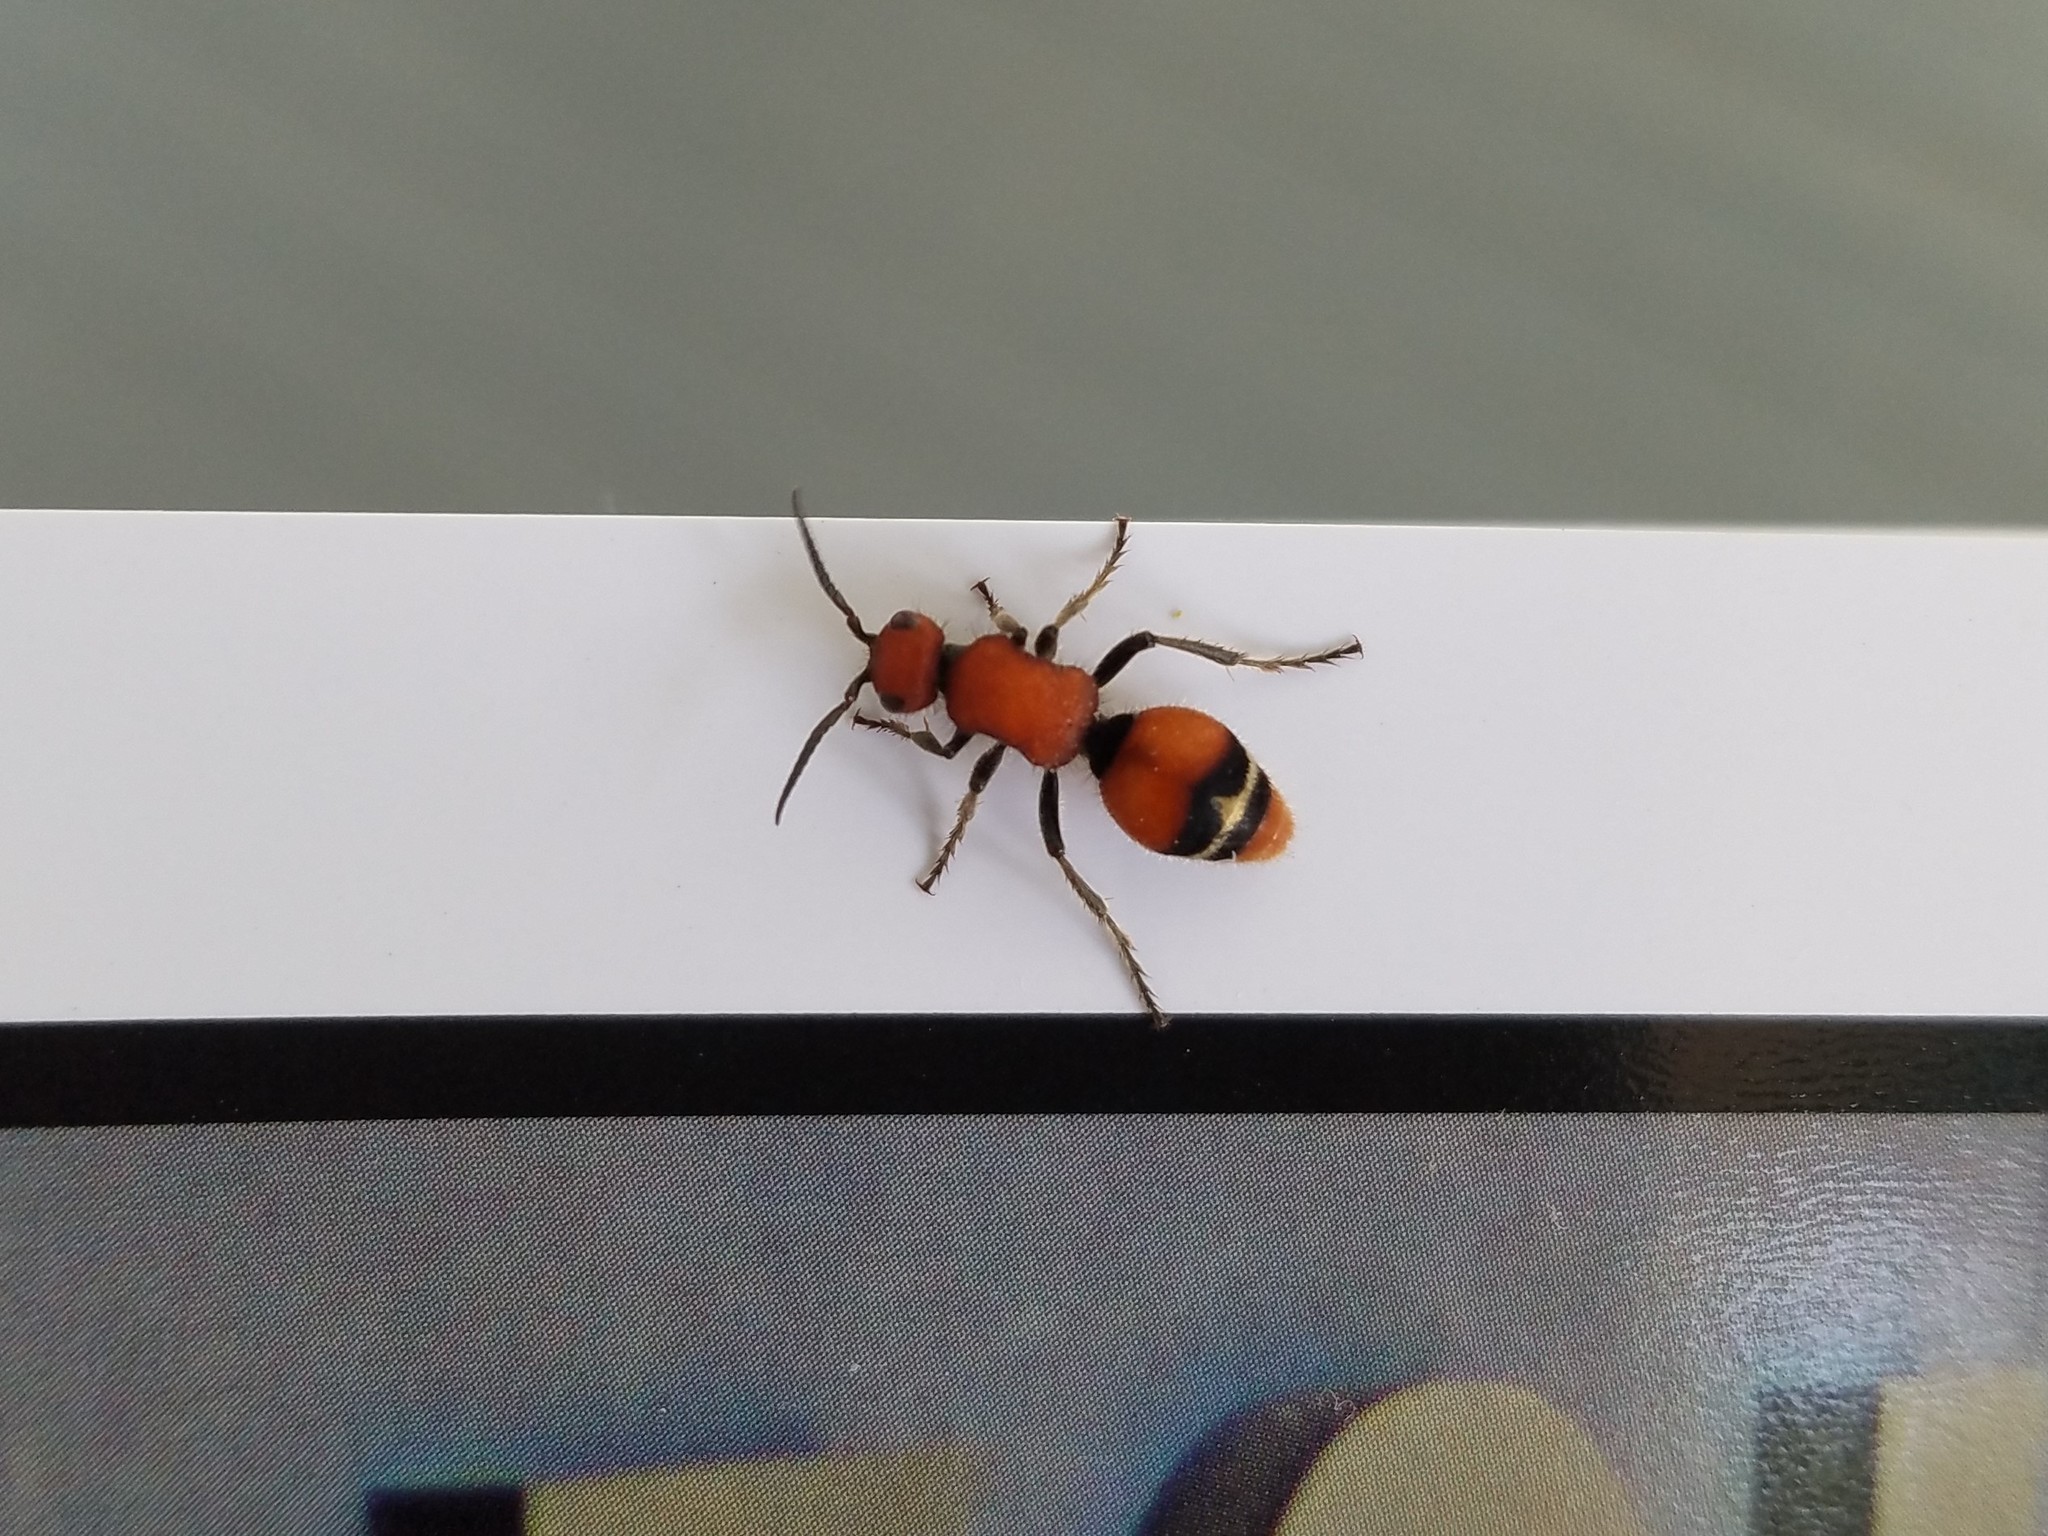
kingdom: Animalia
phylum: Arthropoda
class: Insecta
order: Hymenoptera
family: Mutillidae
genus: Timulla
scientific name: Timulla
